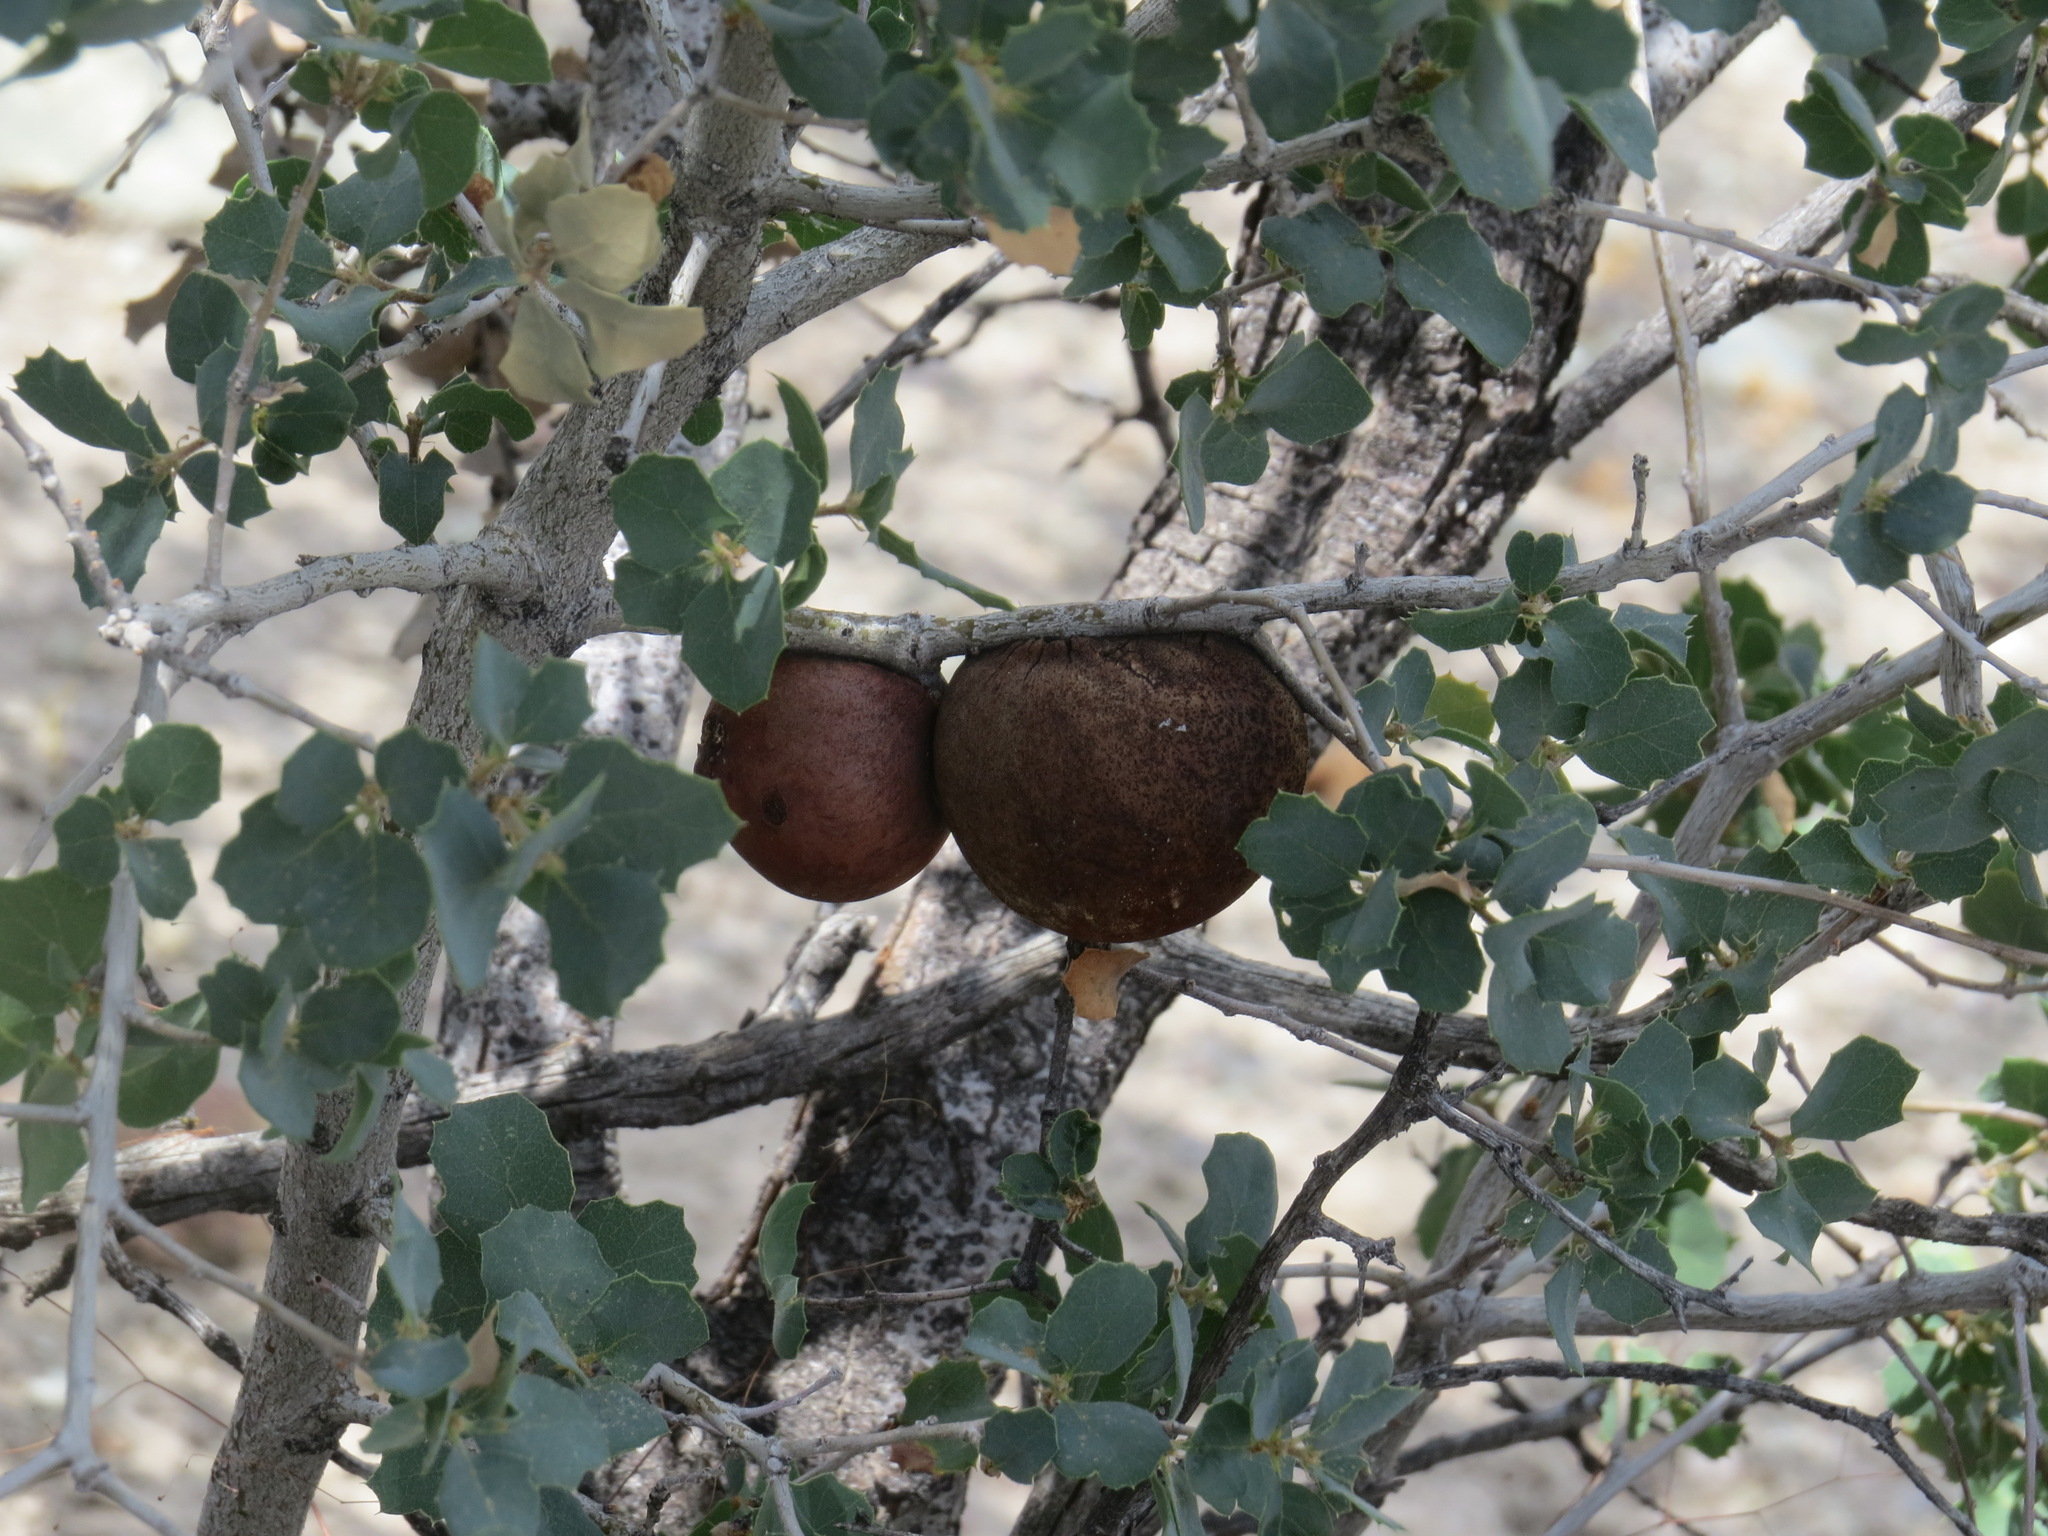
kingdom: Animalia
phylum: Arthropoda
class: Insecta
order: Hymenoptera
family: Cynipidae
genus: Andricus
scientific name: Andricus quercuscalifornicus
